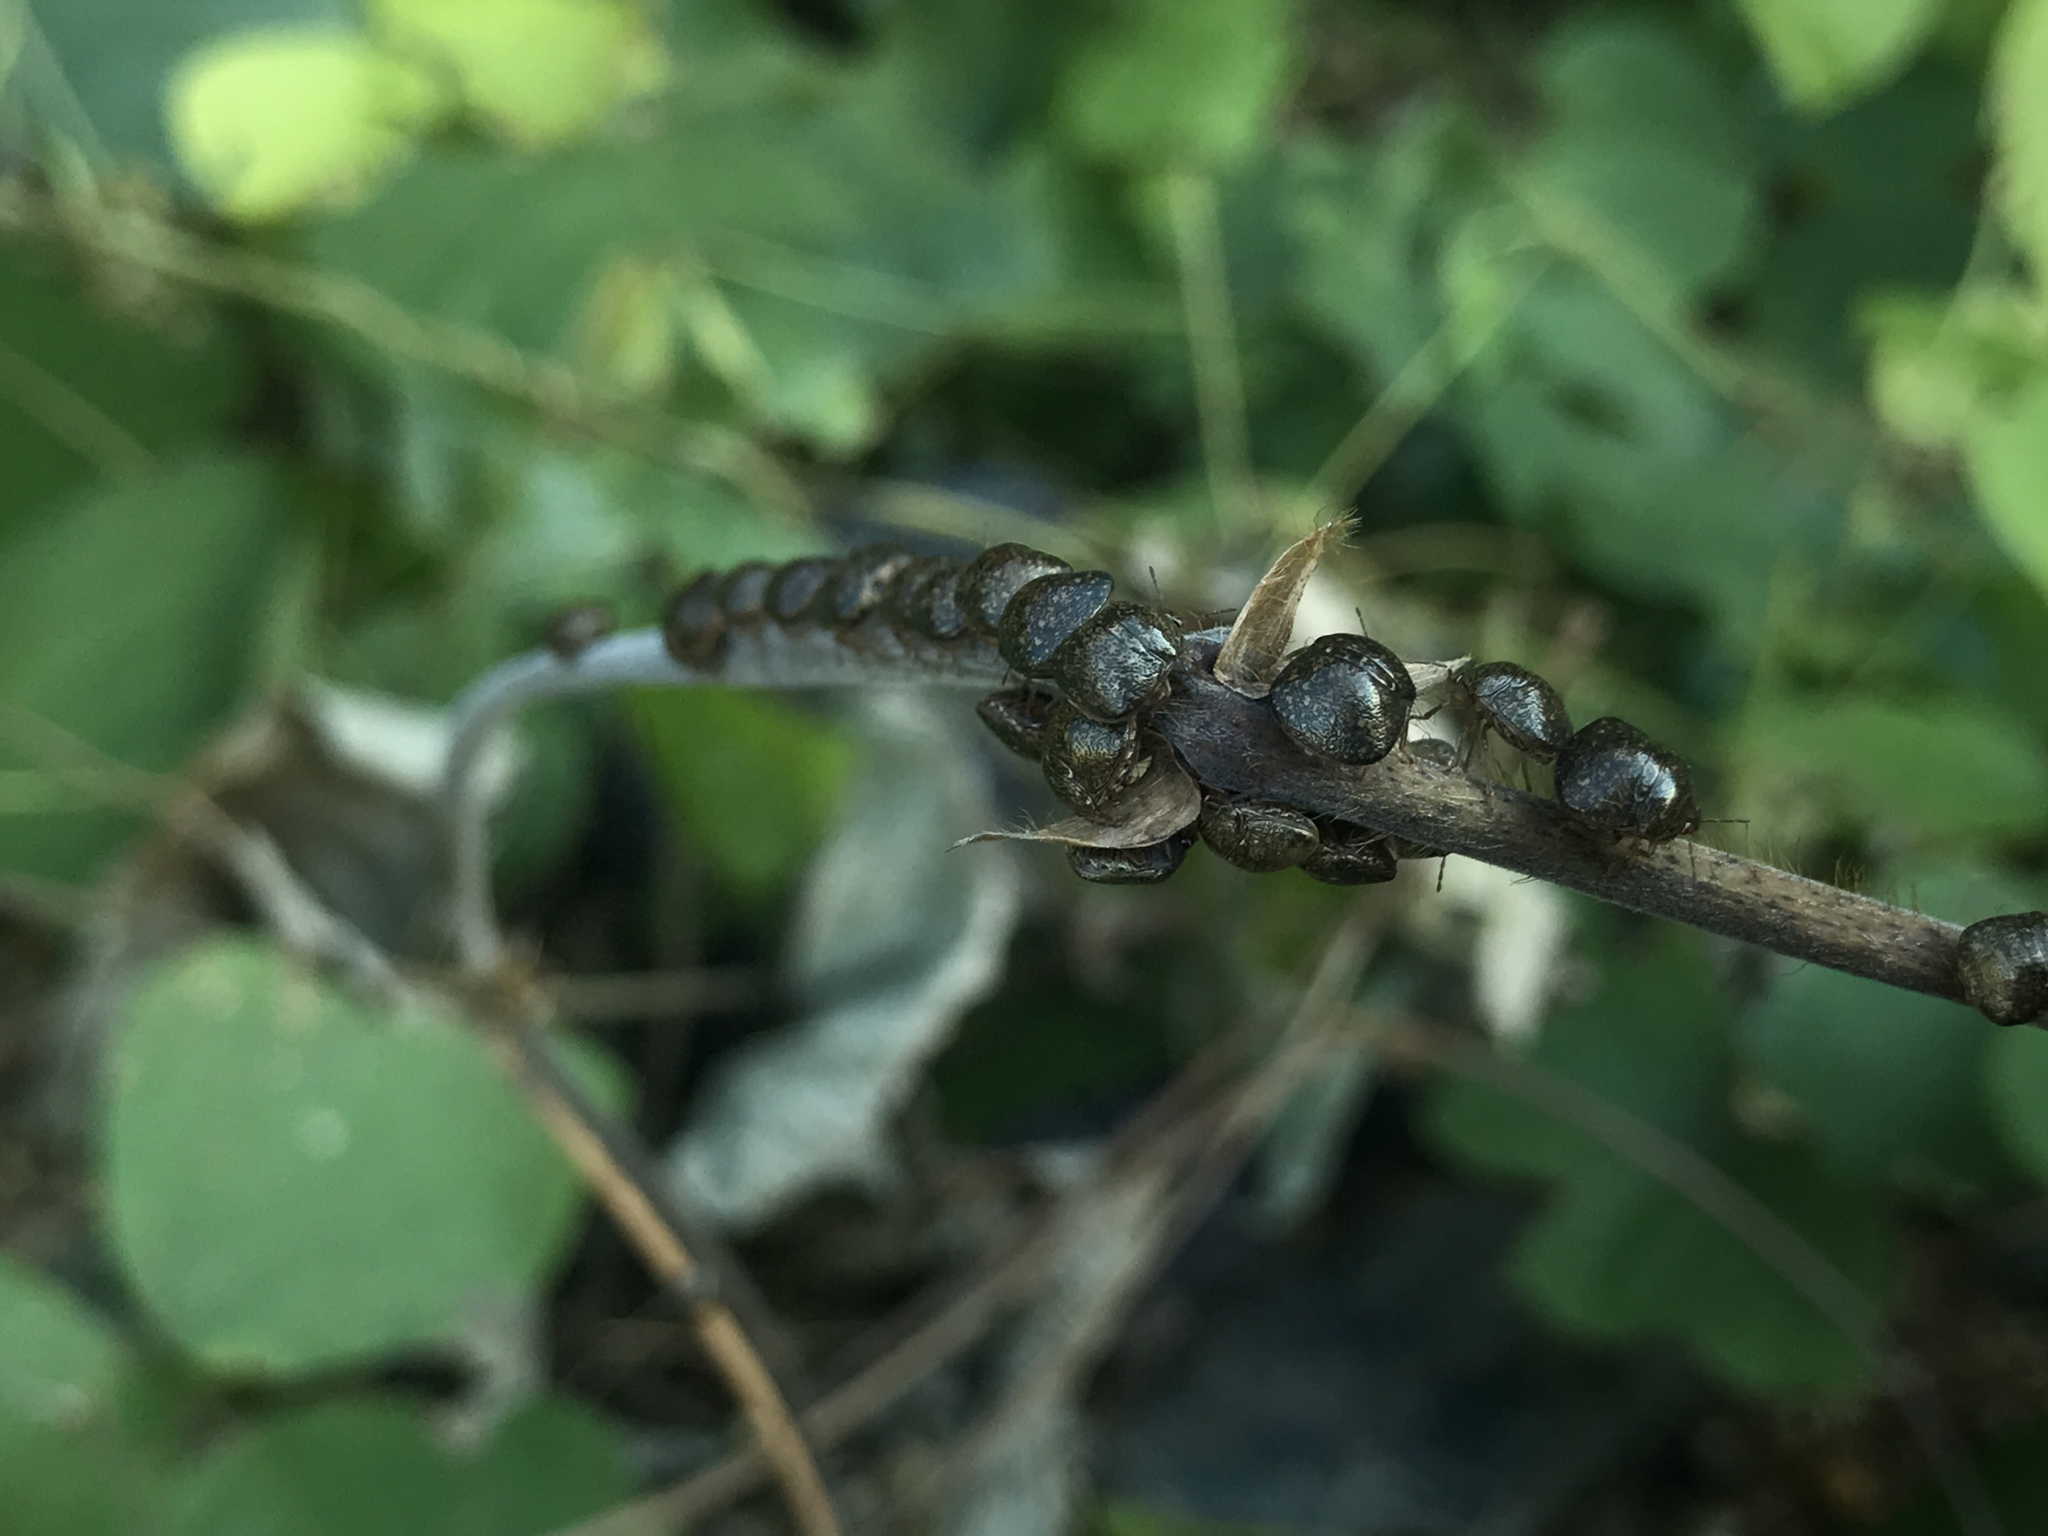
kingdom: Animalia
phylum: Arthropoda
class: Insecta
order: Hemiptera
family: Plataspidae
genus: Megacopta
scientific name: Megacopta cribraria
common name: Bean plataspid
